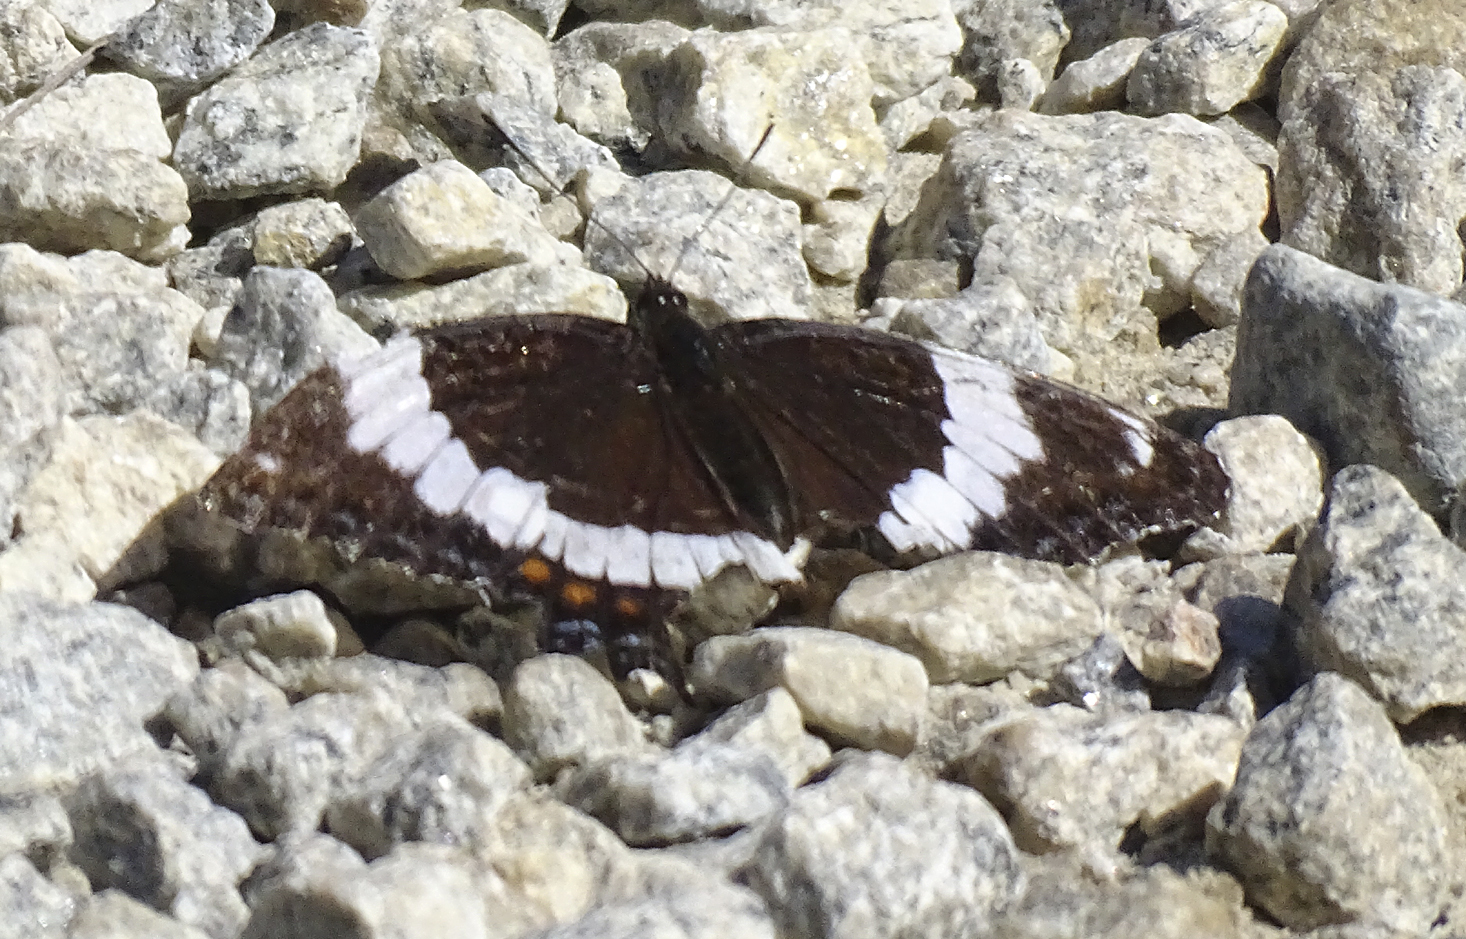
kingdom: Animalia
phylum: Arthropoda
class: Insecta
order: Lepidoptera
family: Nymphalidae
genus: Limenitis
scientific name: Limenitis arthemis
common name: Red-spotted admiral
